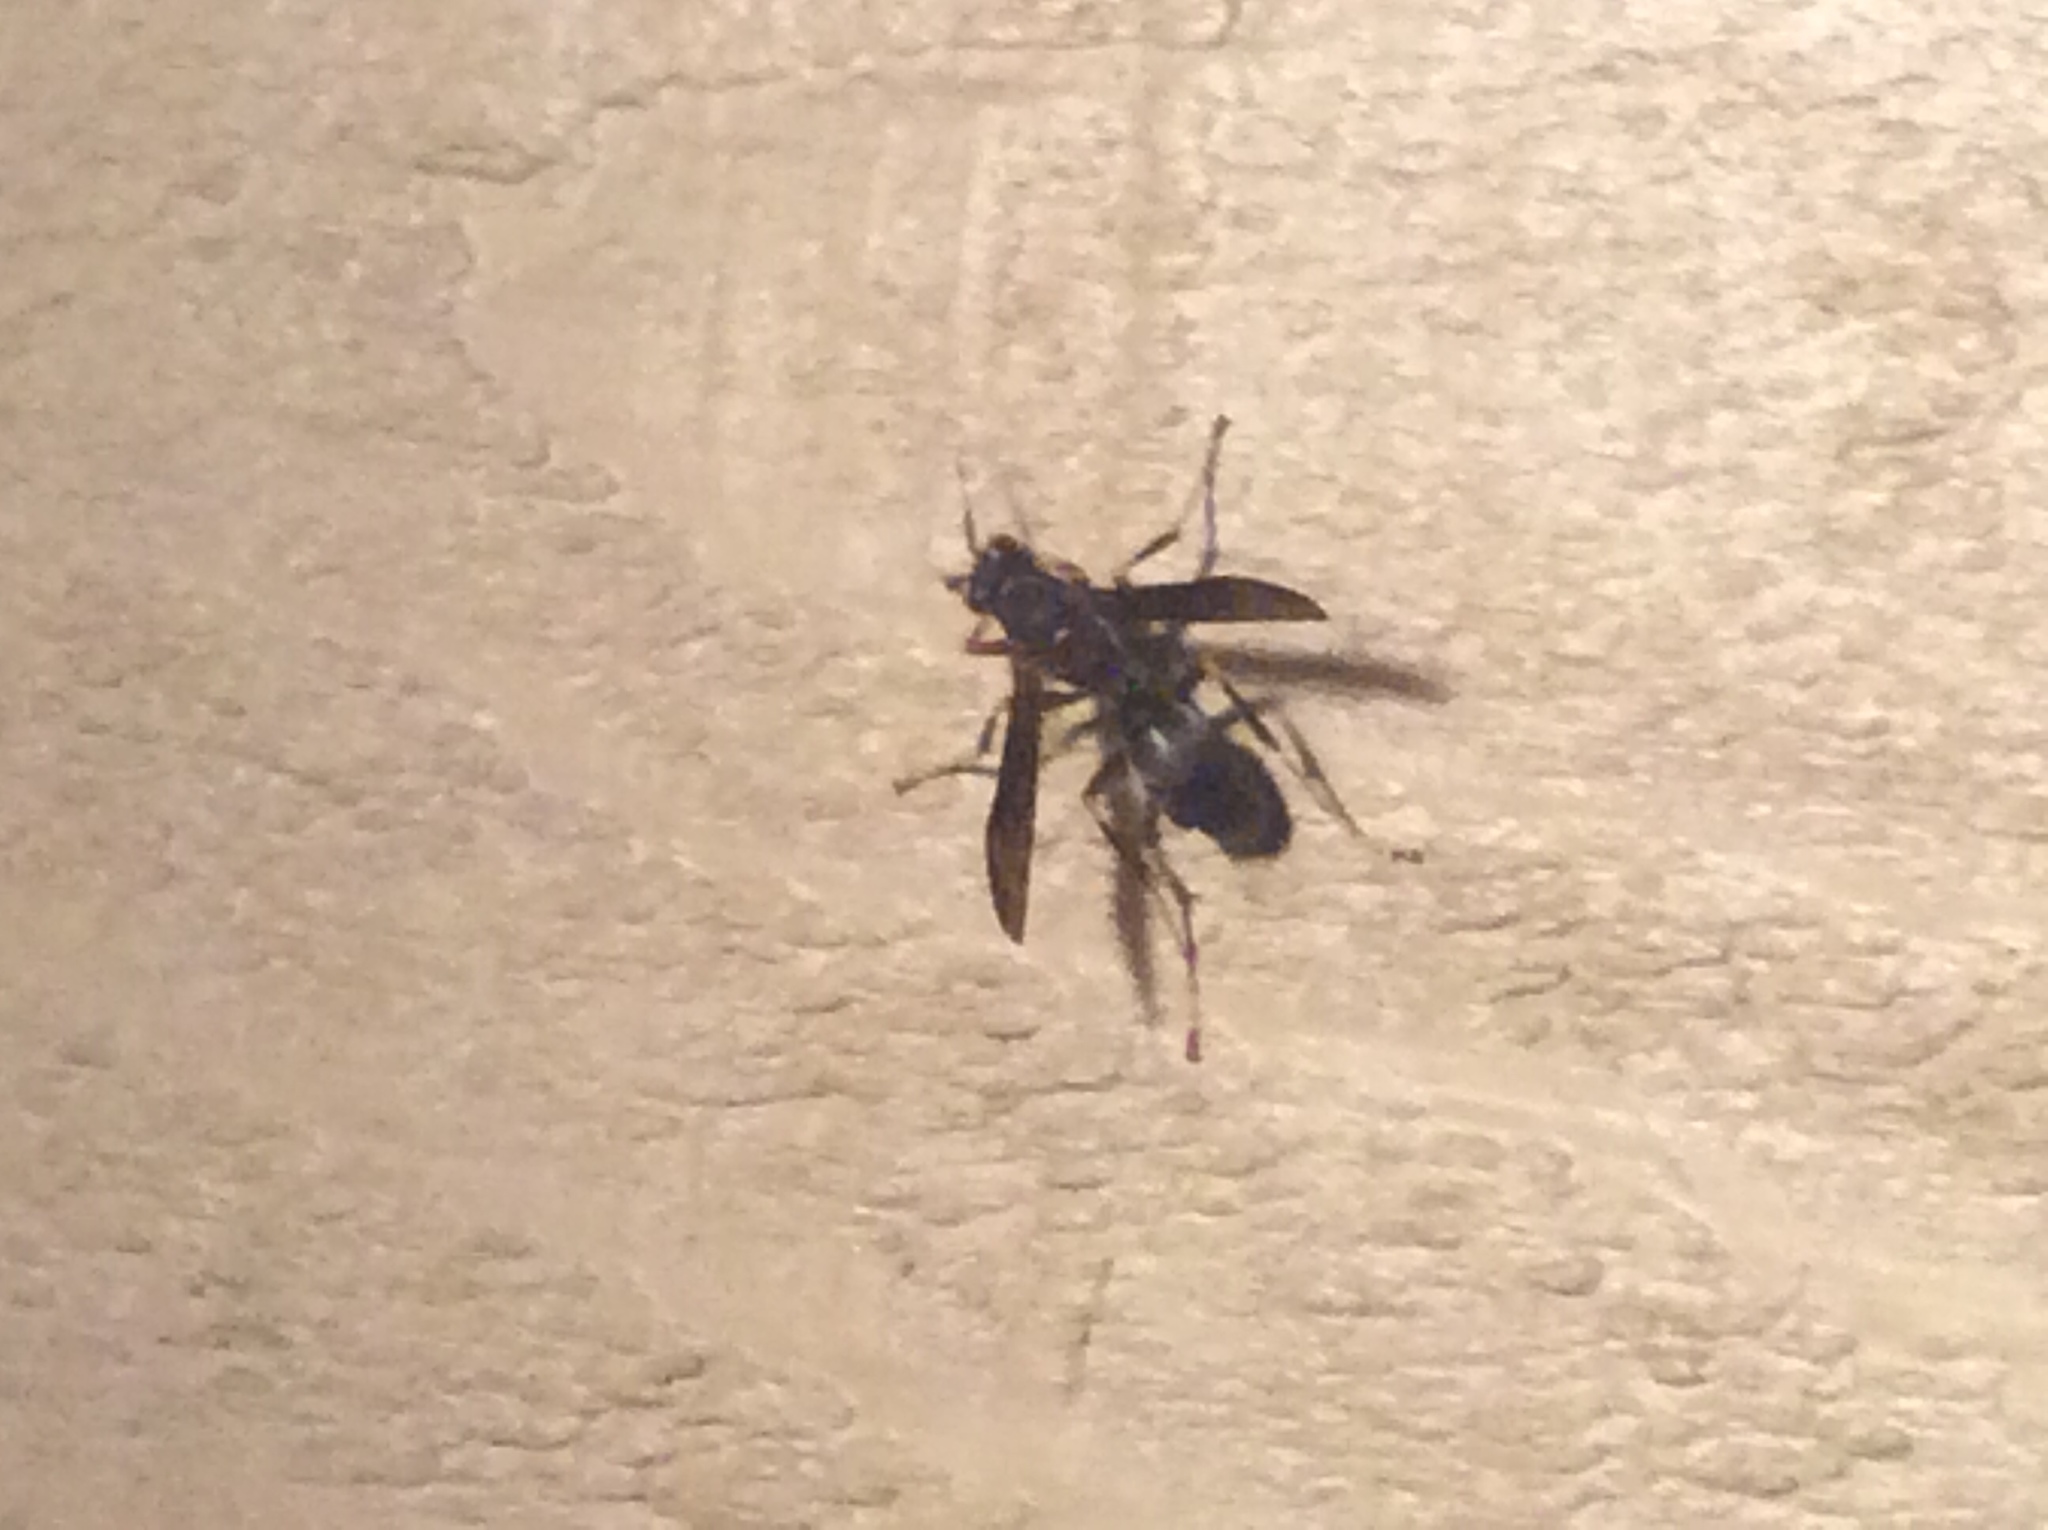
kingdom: Animalia
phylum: Arthropoda
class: Insecta
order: Hymenoptera
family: Eumenidae
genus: Polistes
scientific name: Polistes fuscatus
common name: Dark paper wasp
